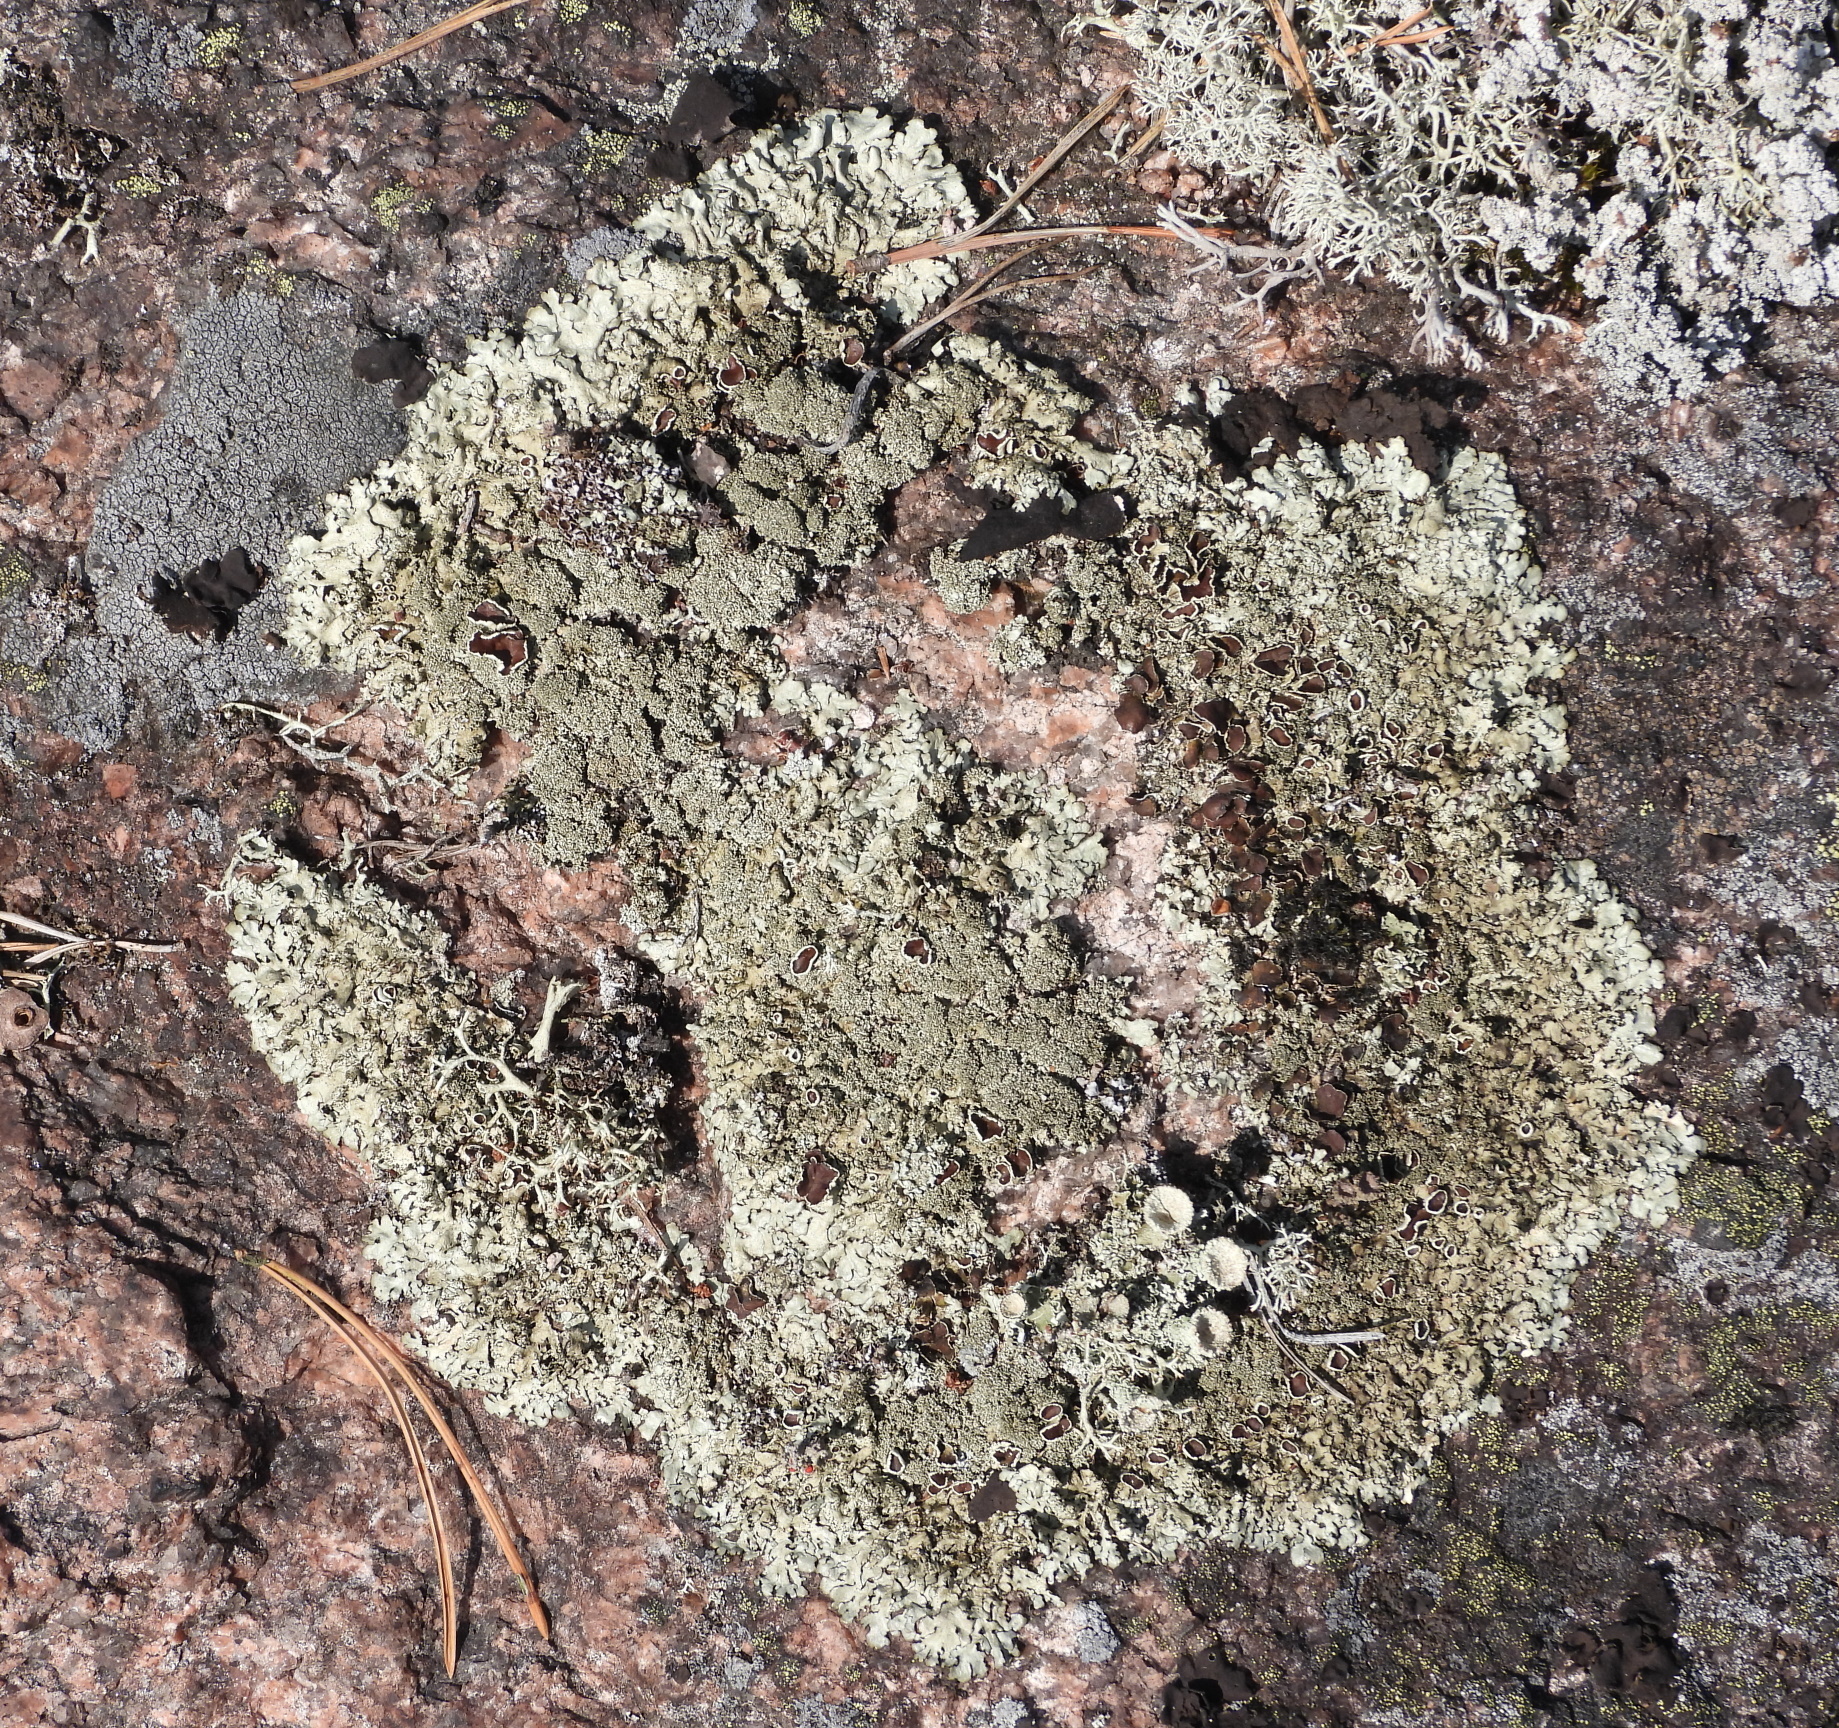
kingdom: Fungi
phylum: Ascomycota
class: Lecanoromycetes
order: Lecanorales
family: Parmeliaceae
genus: Xanthoparmelia
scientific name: Xanthoparmelia conspersa
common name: Peppered rock shield
